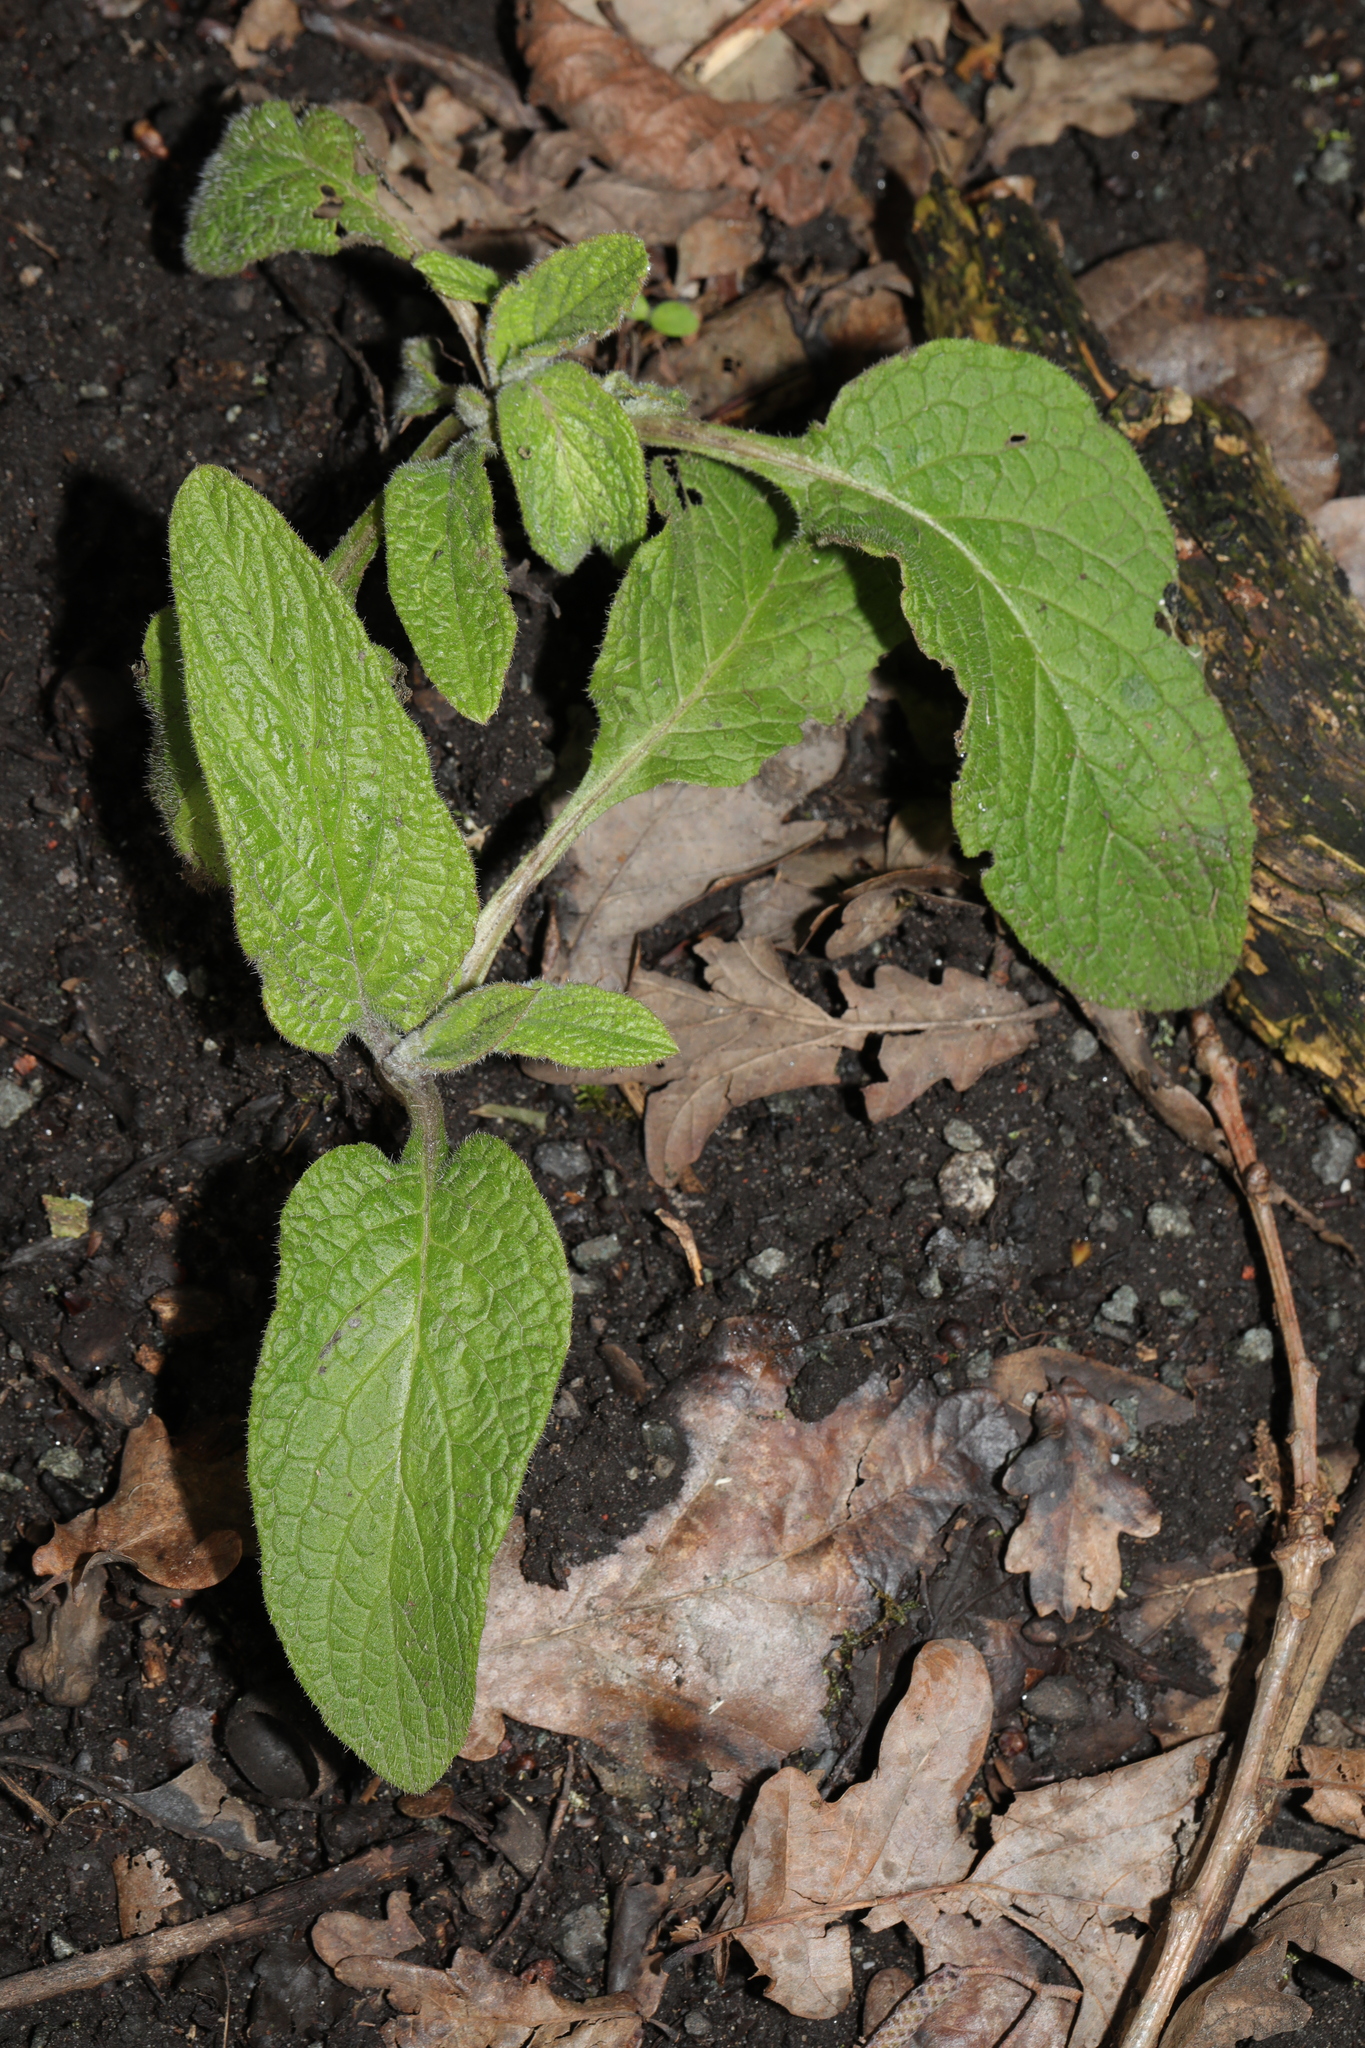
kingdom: Plantae
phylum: Tracheophyta
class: Magnoliopsida
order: Boraginales
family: Boraginaceae
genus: Pentaglottis
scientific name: Pentaglottis sempervirens
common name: Green alkanet
